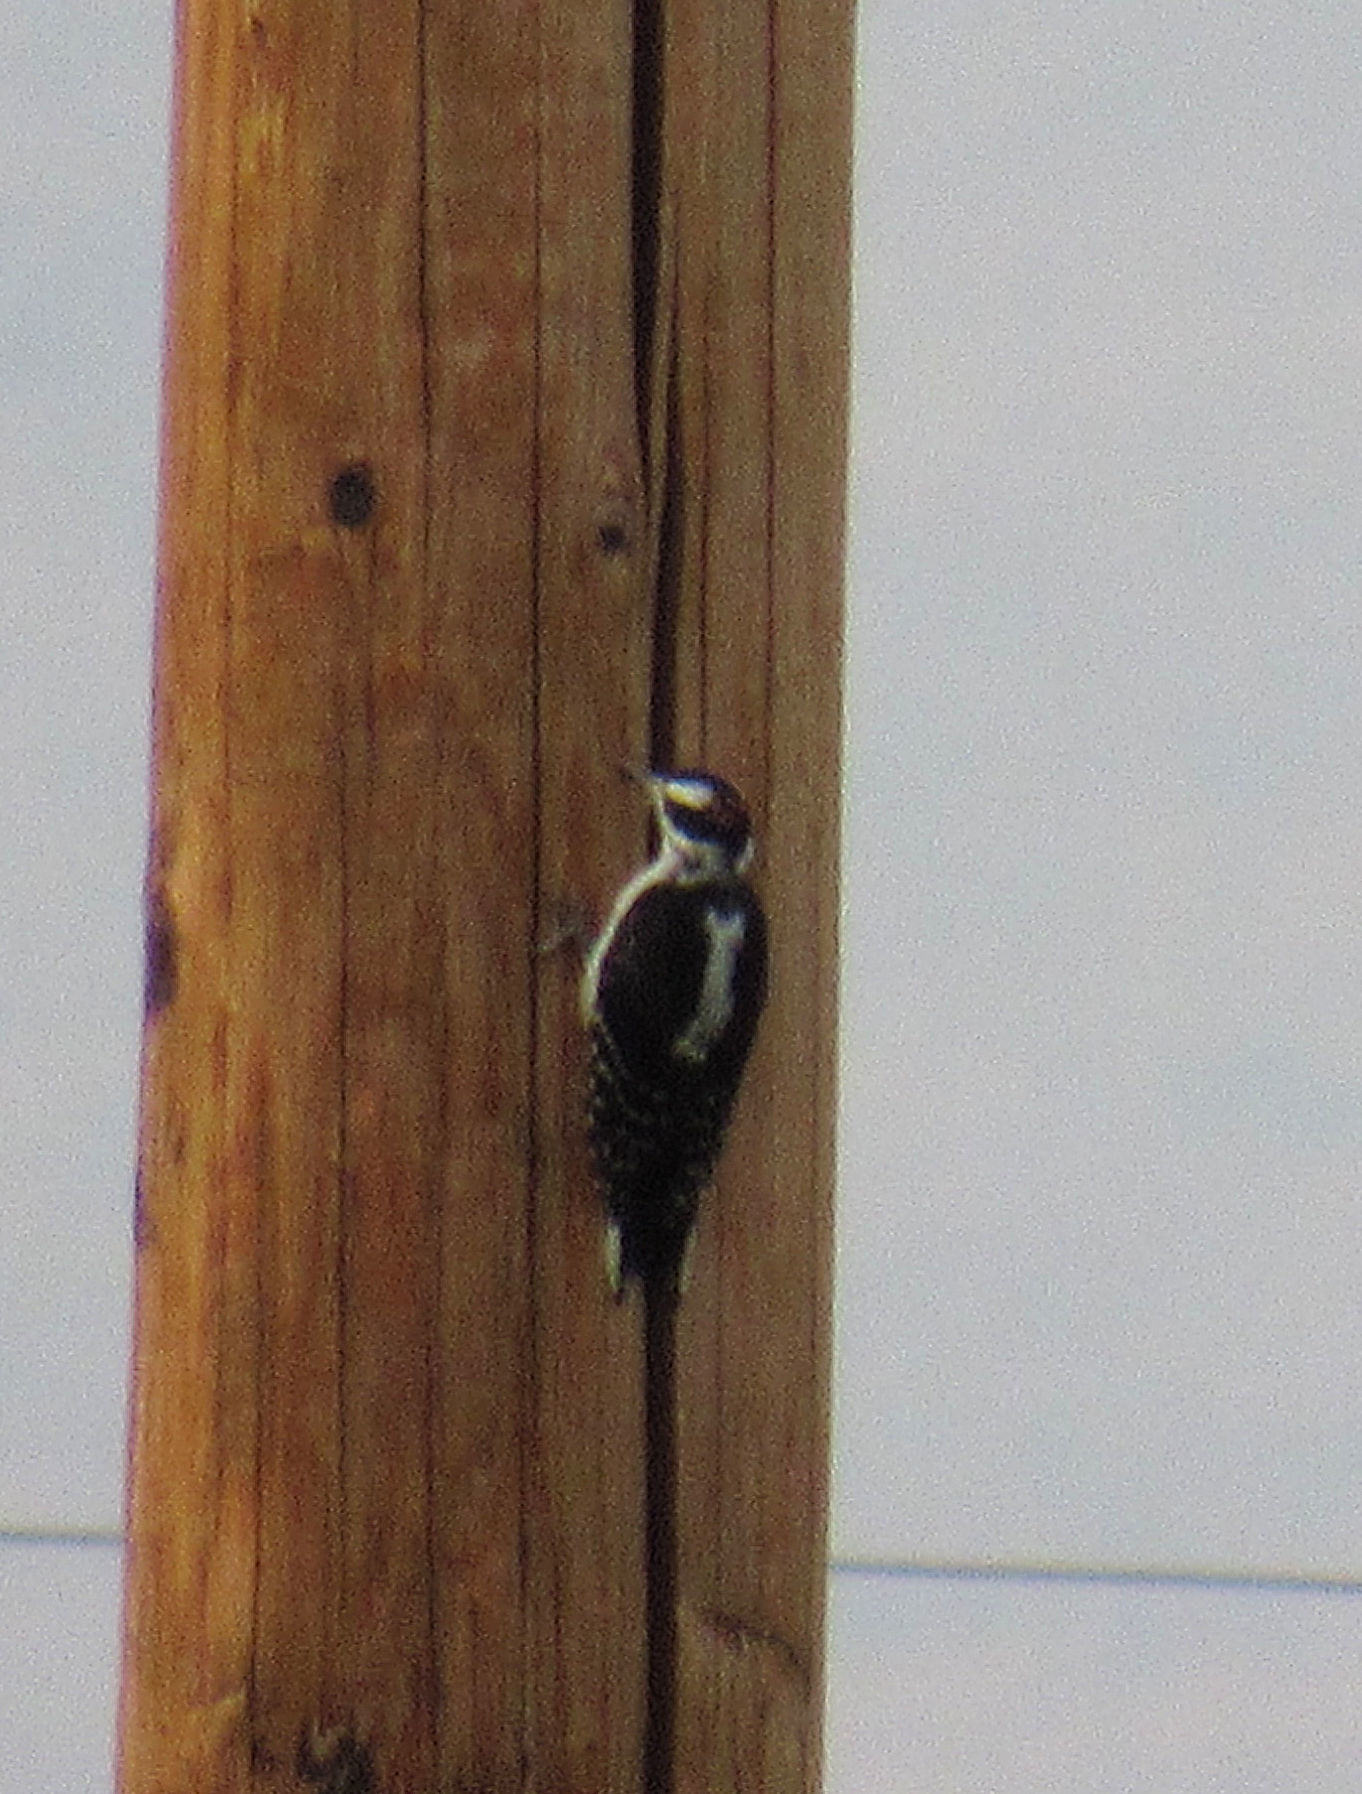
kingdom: Animalia
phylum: Chordata
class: Aves
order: Piciformes
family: Picidae
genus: Leuconotopicus
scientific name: Leuconotopicus villosus
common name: Hairy woodpecker
